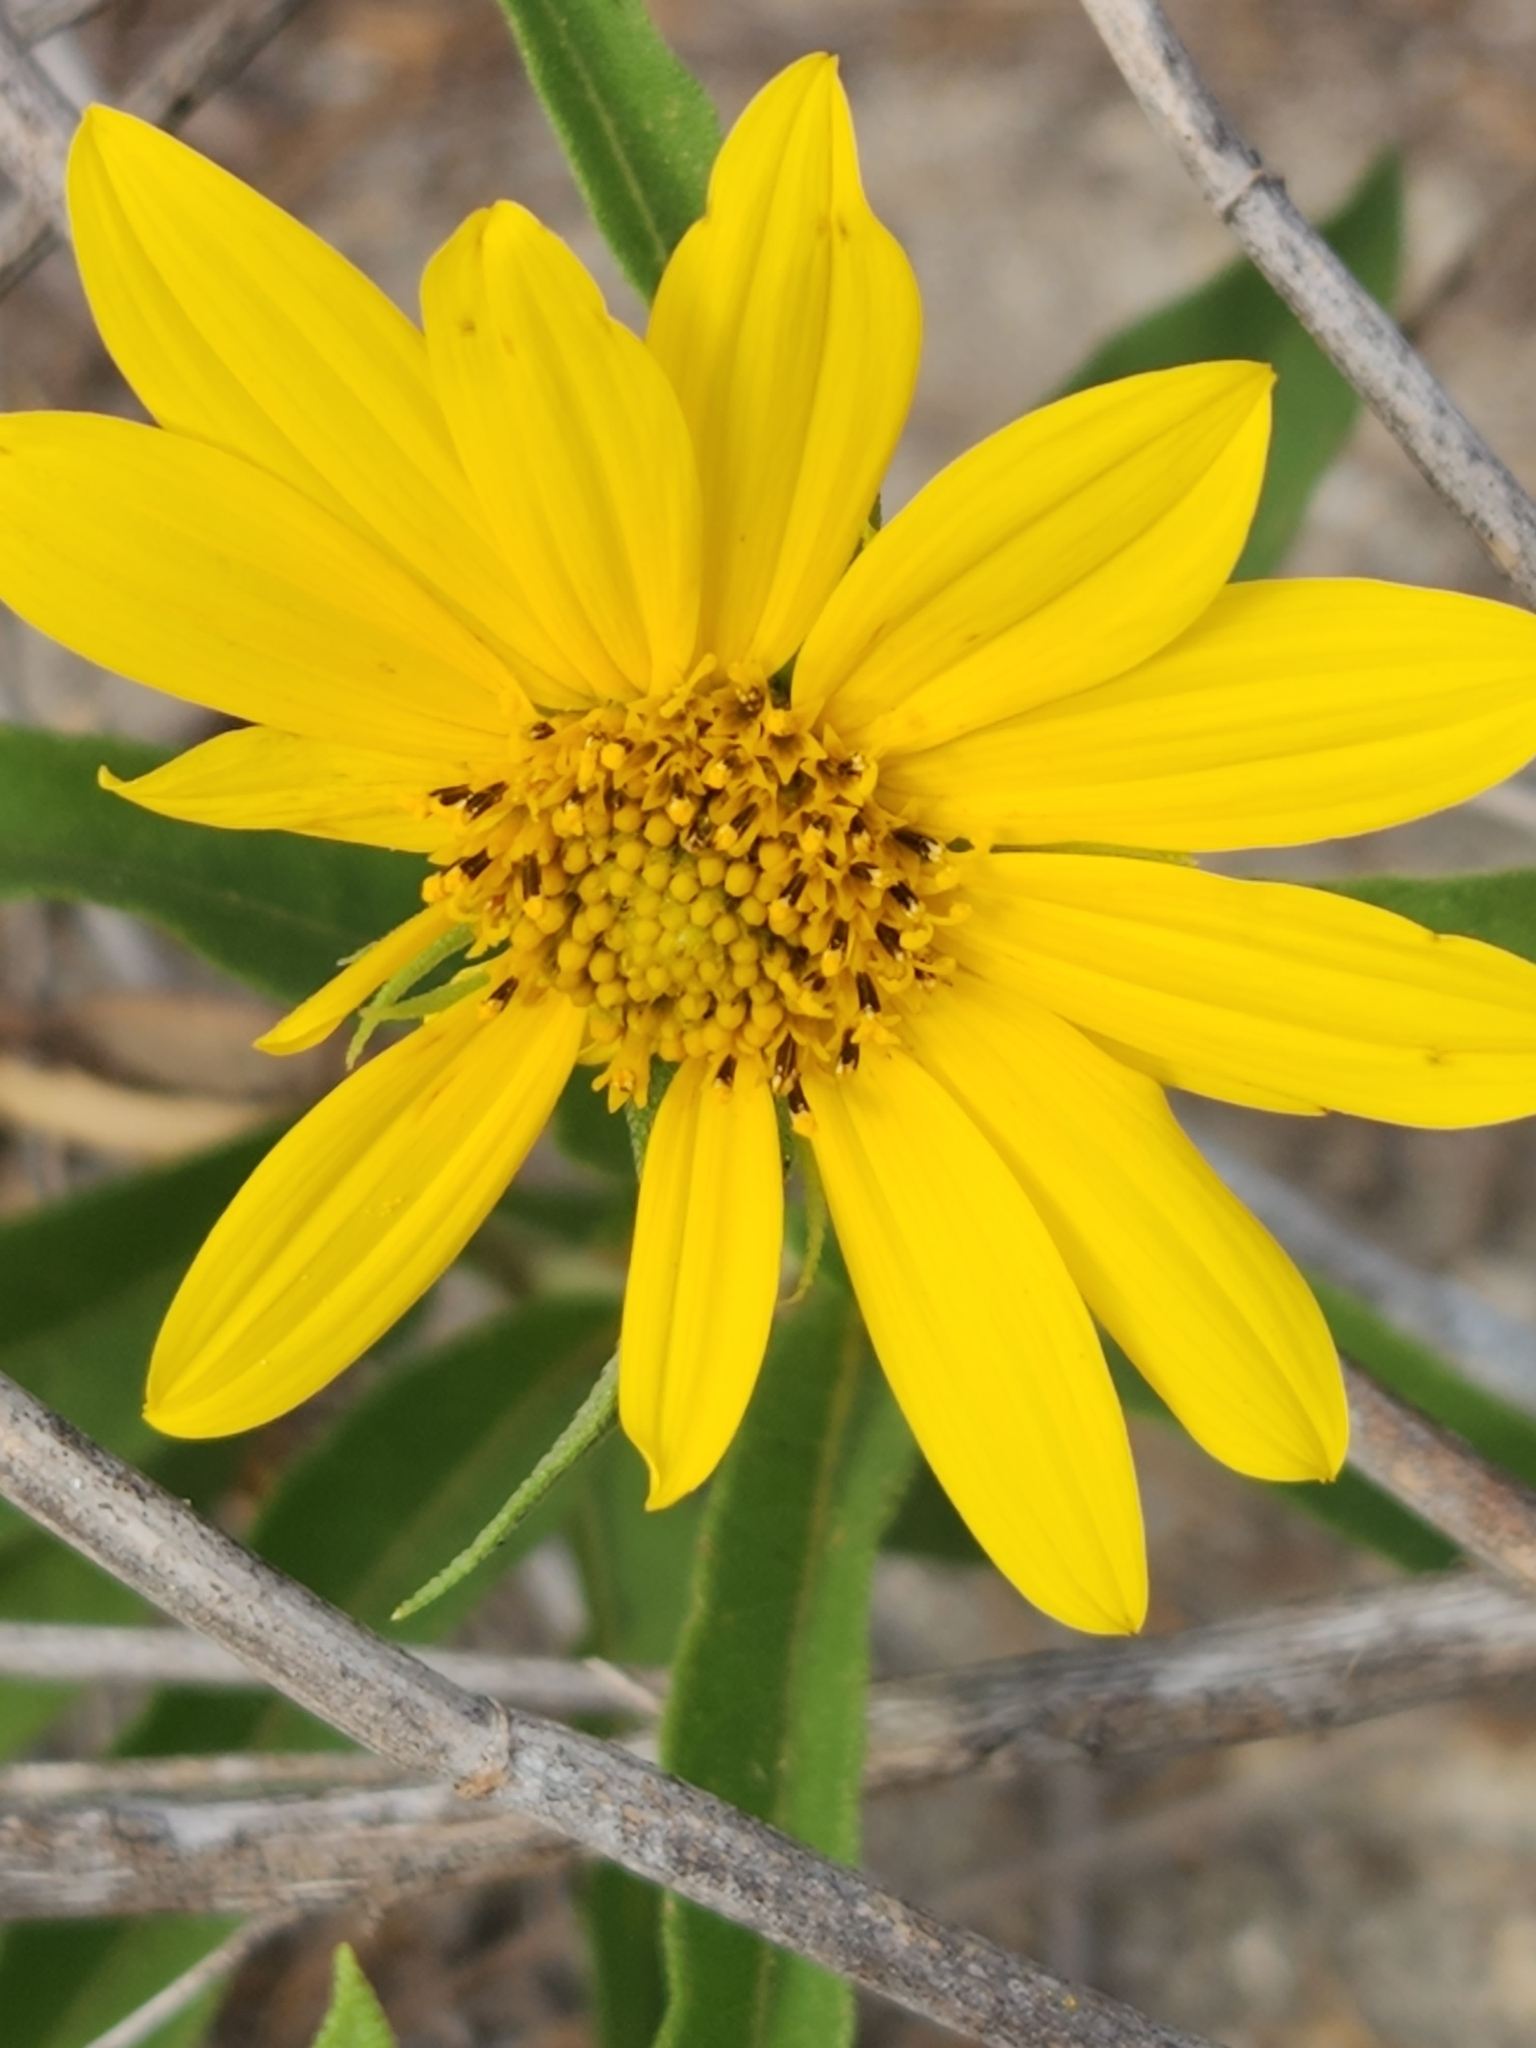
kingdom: Plantae
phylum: Tracheophyta
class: Magnoliopsida
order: Asterales
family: Asteraceae
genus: Helianthus
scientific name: Helianthus maximiliani
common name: Maximilian's sunflower
